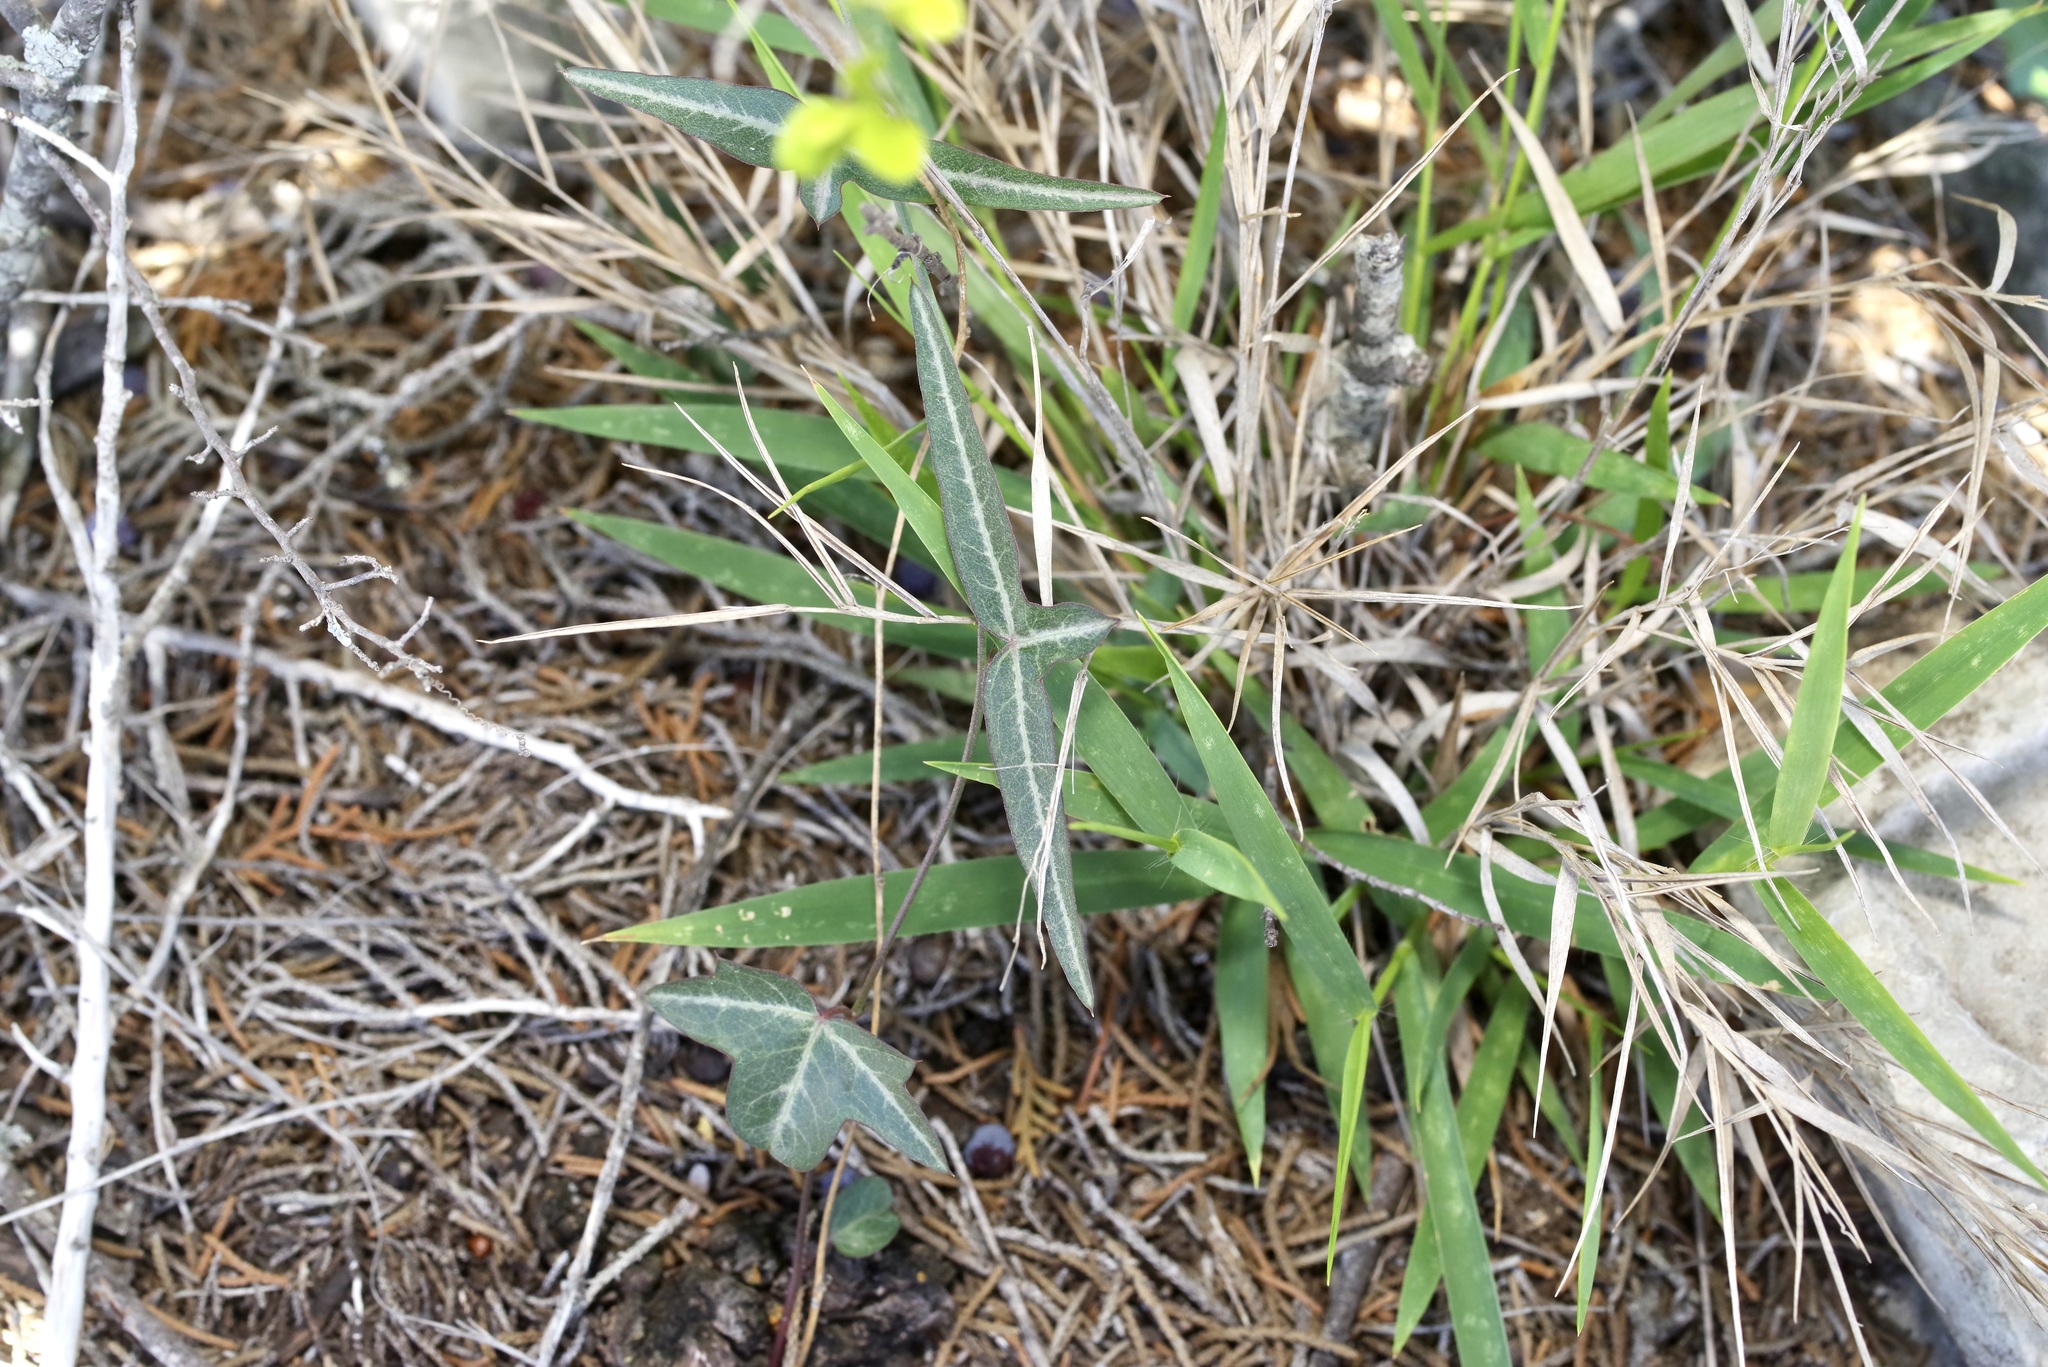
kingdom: Plantae
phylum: Tracheophyta
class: Magnoliopsida
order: Malpighiales
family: Passifloraceae
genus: Passiflora
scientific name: Passiflora tenuiloba
